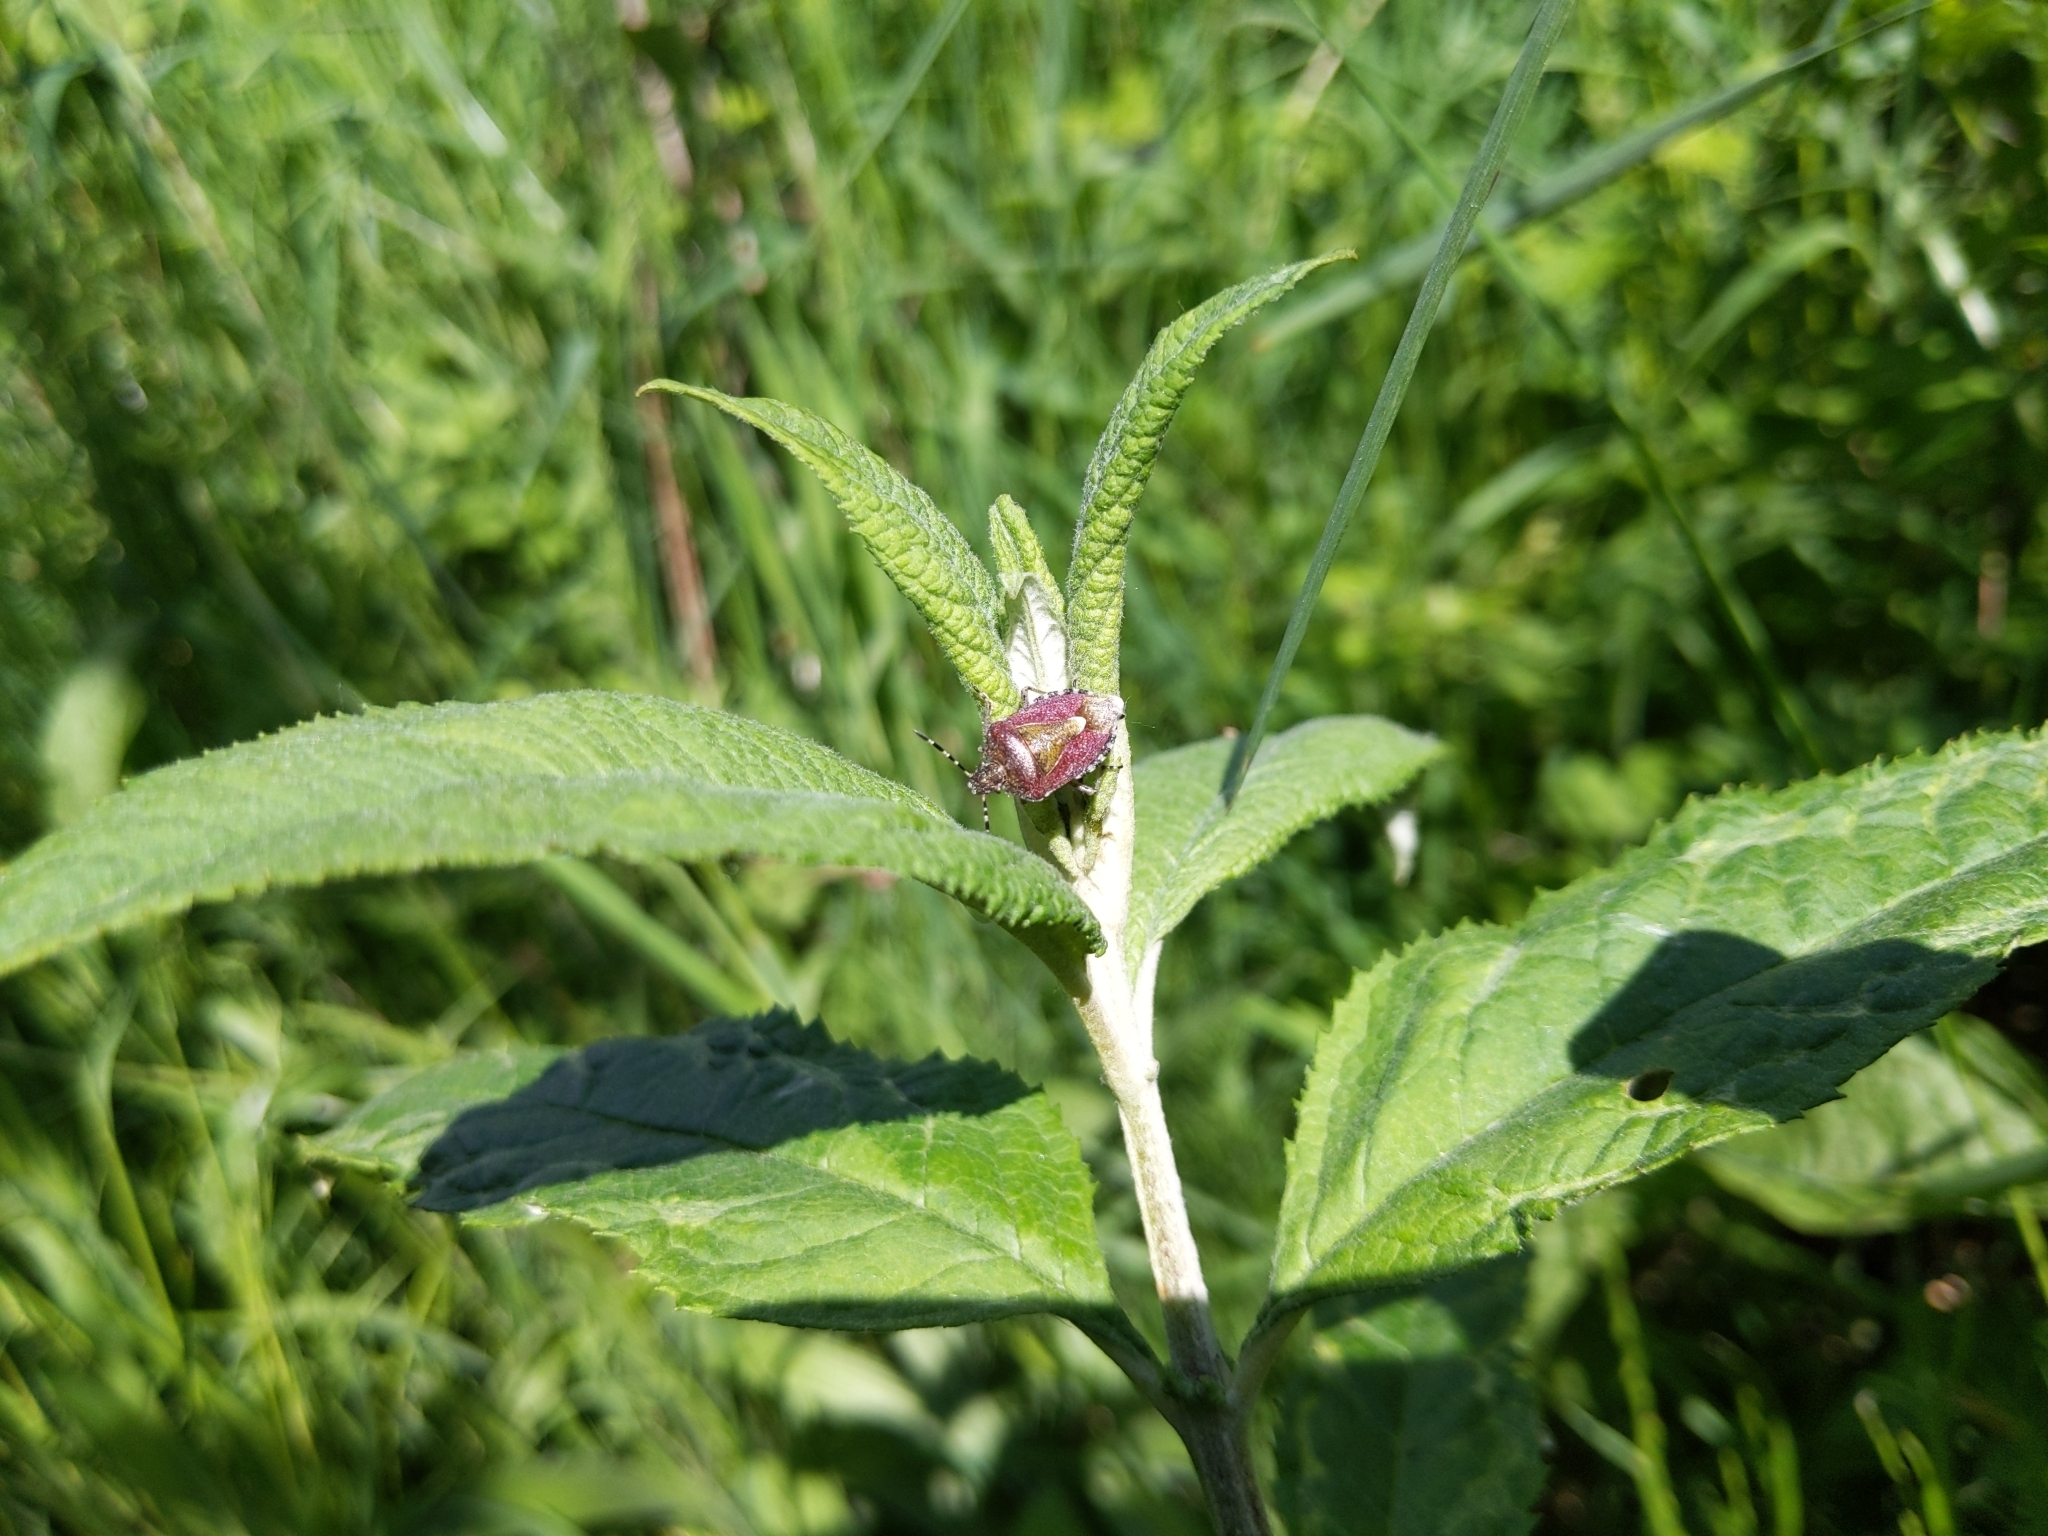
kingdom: Animalia
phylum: Arthropoda
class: Insecta
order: Hemiptera
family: Pentatomidae
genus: Dolycoris
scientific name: Dolycoris baccarum
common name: Sloe bug
